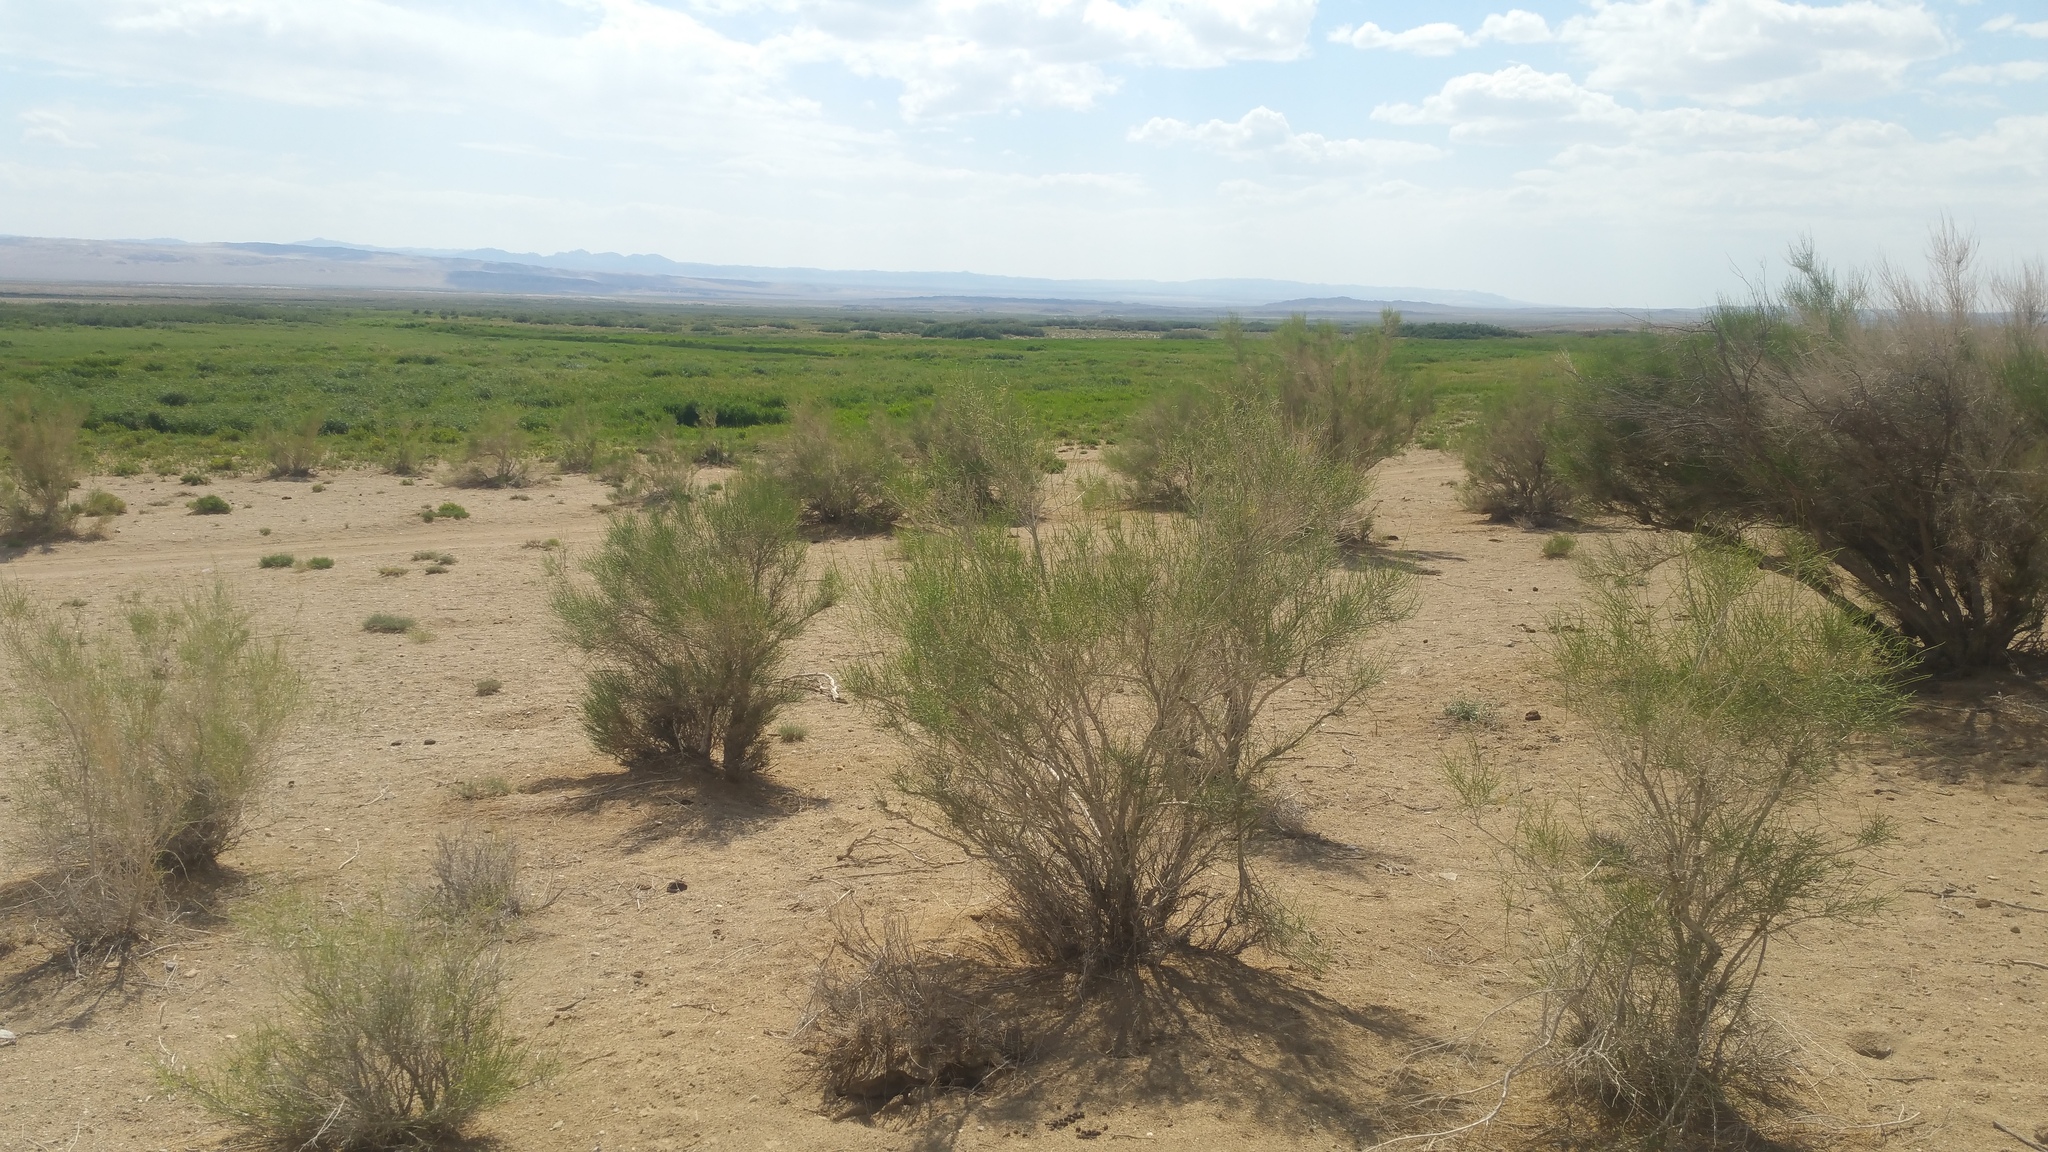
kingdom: Plantae
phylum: Tracheophyta
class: Magnoliopsida
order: Caryophyllales
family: Amaranthaceae
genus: Haloxylon
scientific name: Haloxylon ammodendron
